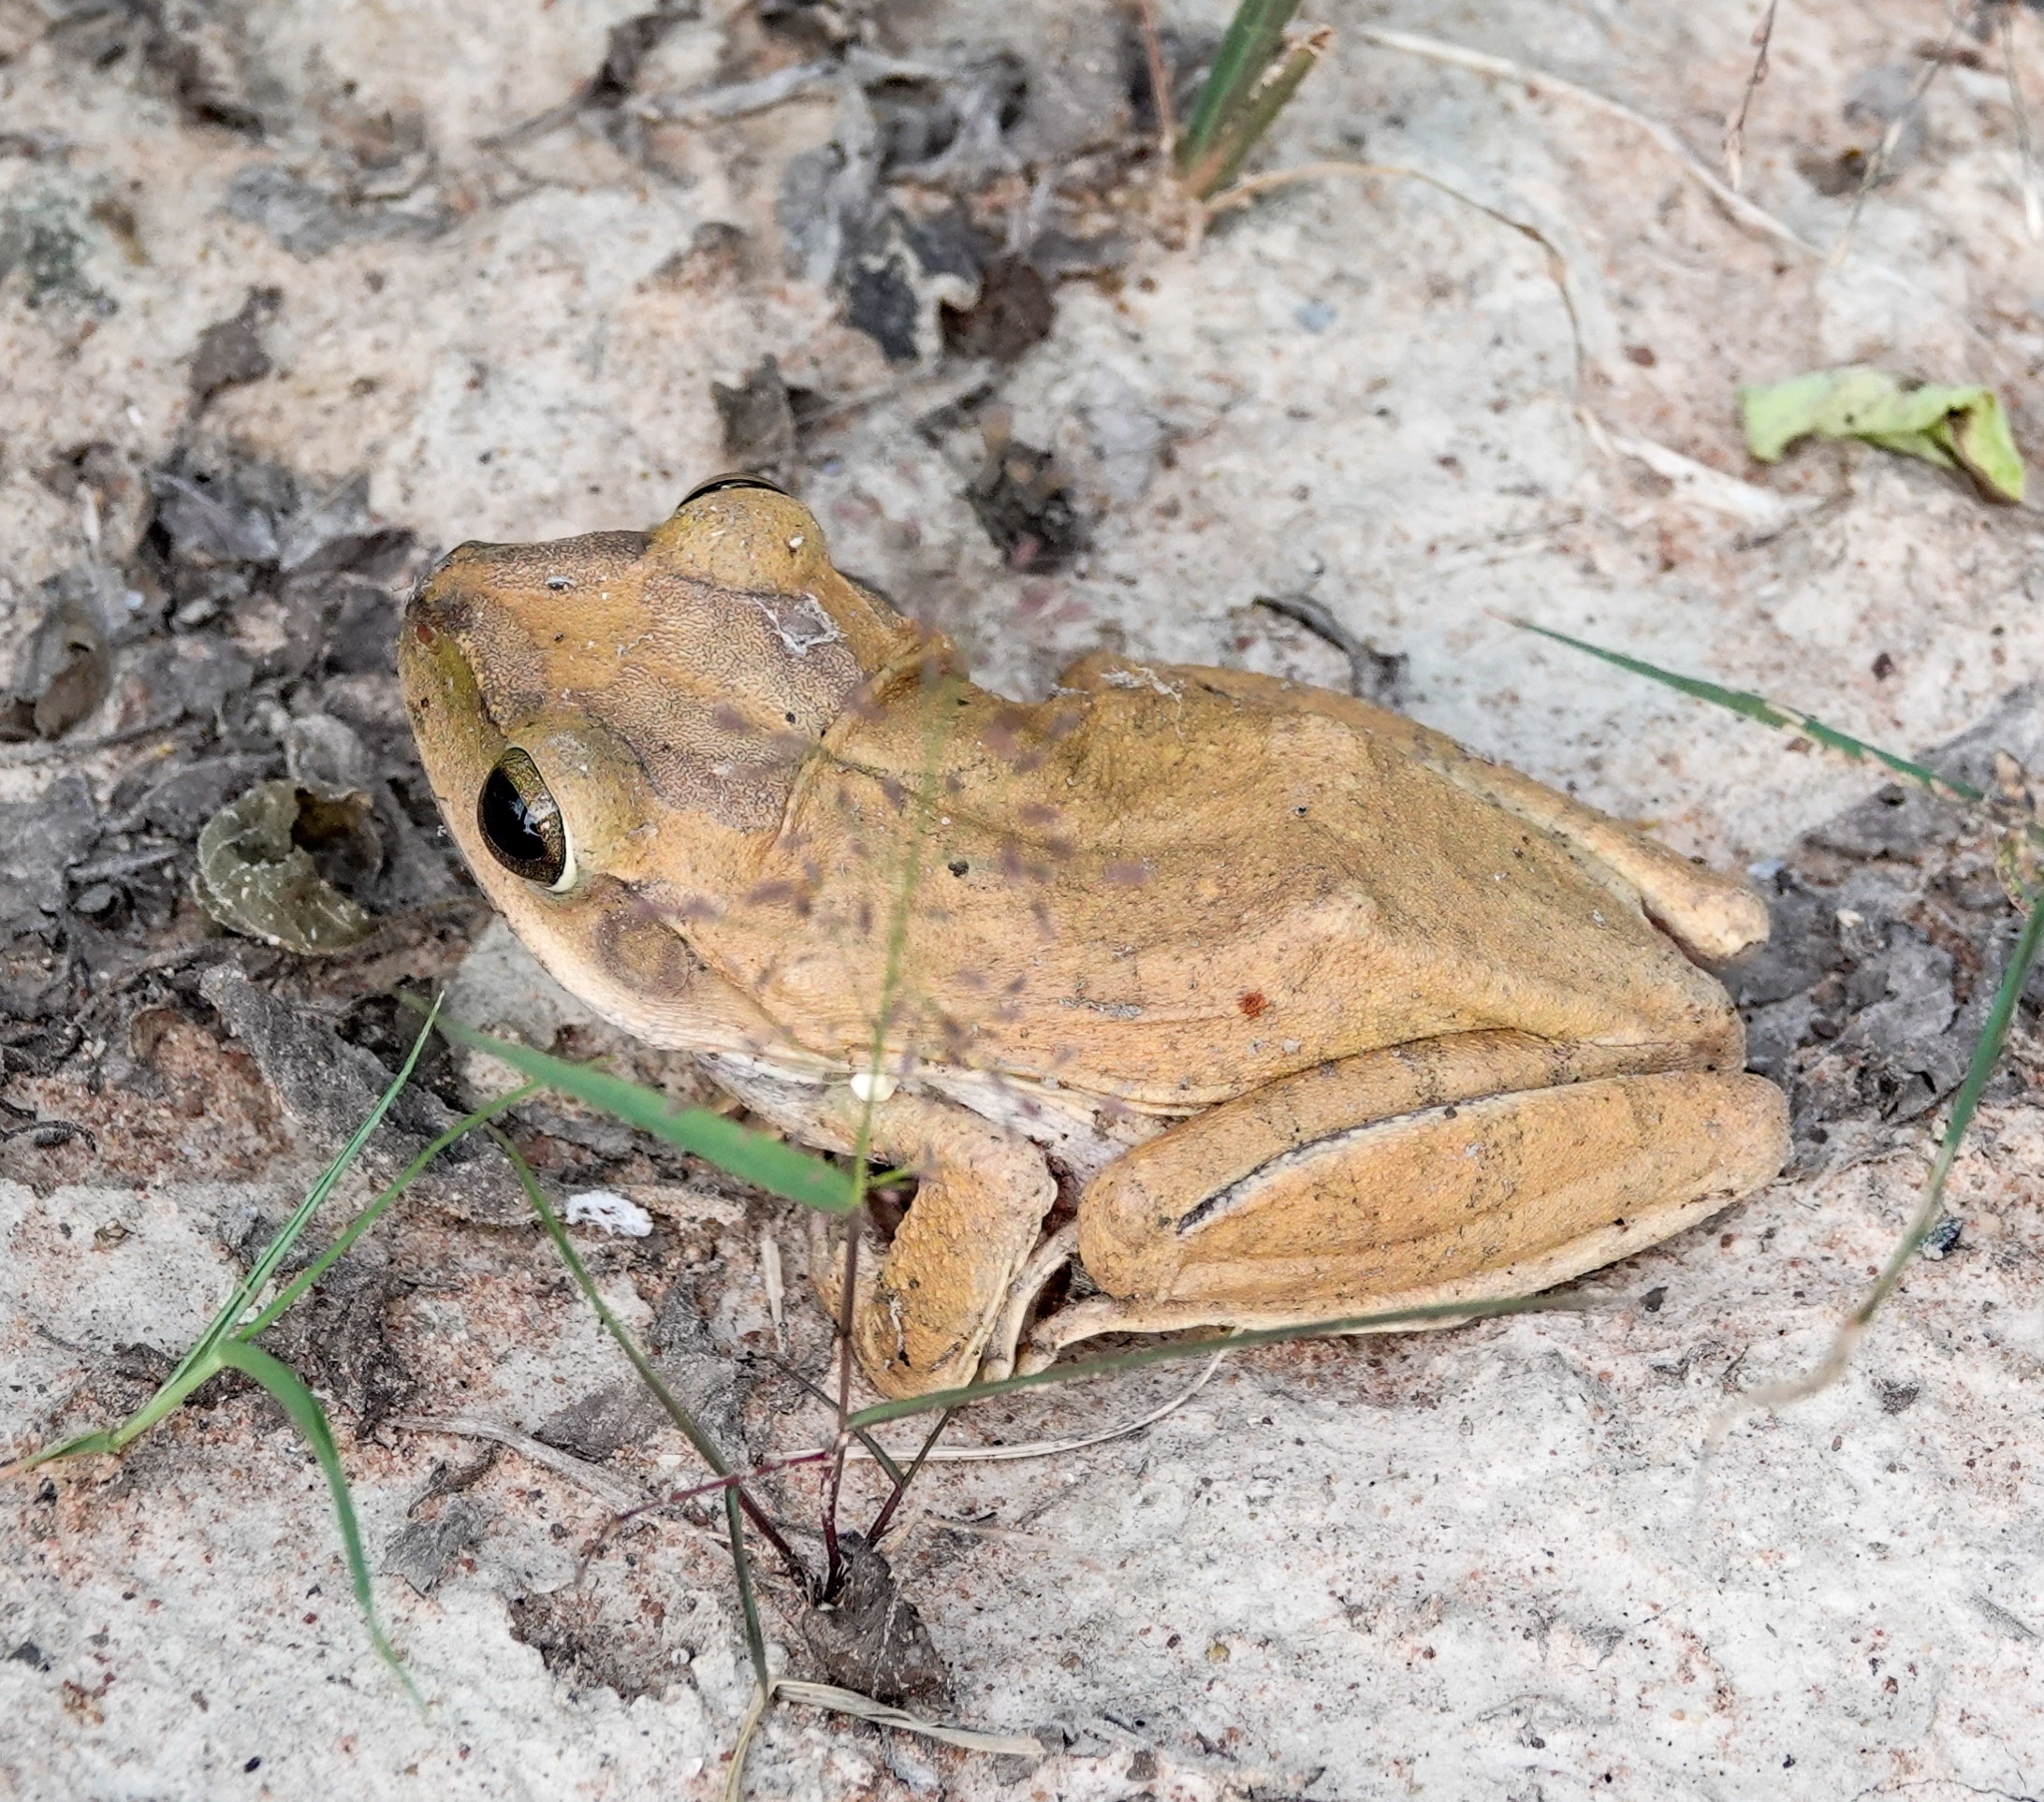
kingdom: Animalia
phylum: Chordata
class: Amphibia
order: Anura
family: Rhacophoridae
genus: Polypedates
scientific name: Polypedates megacephalus
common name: Hong kong whipping frog
